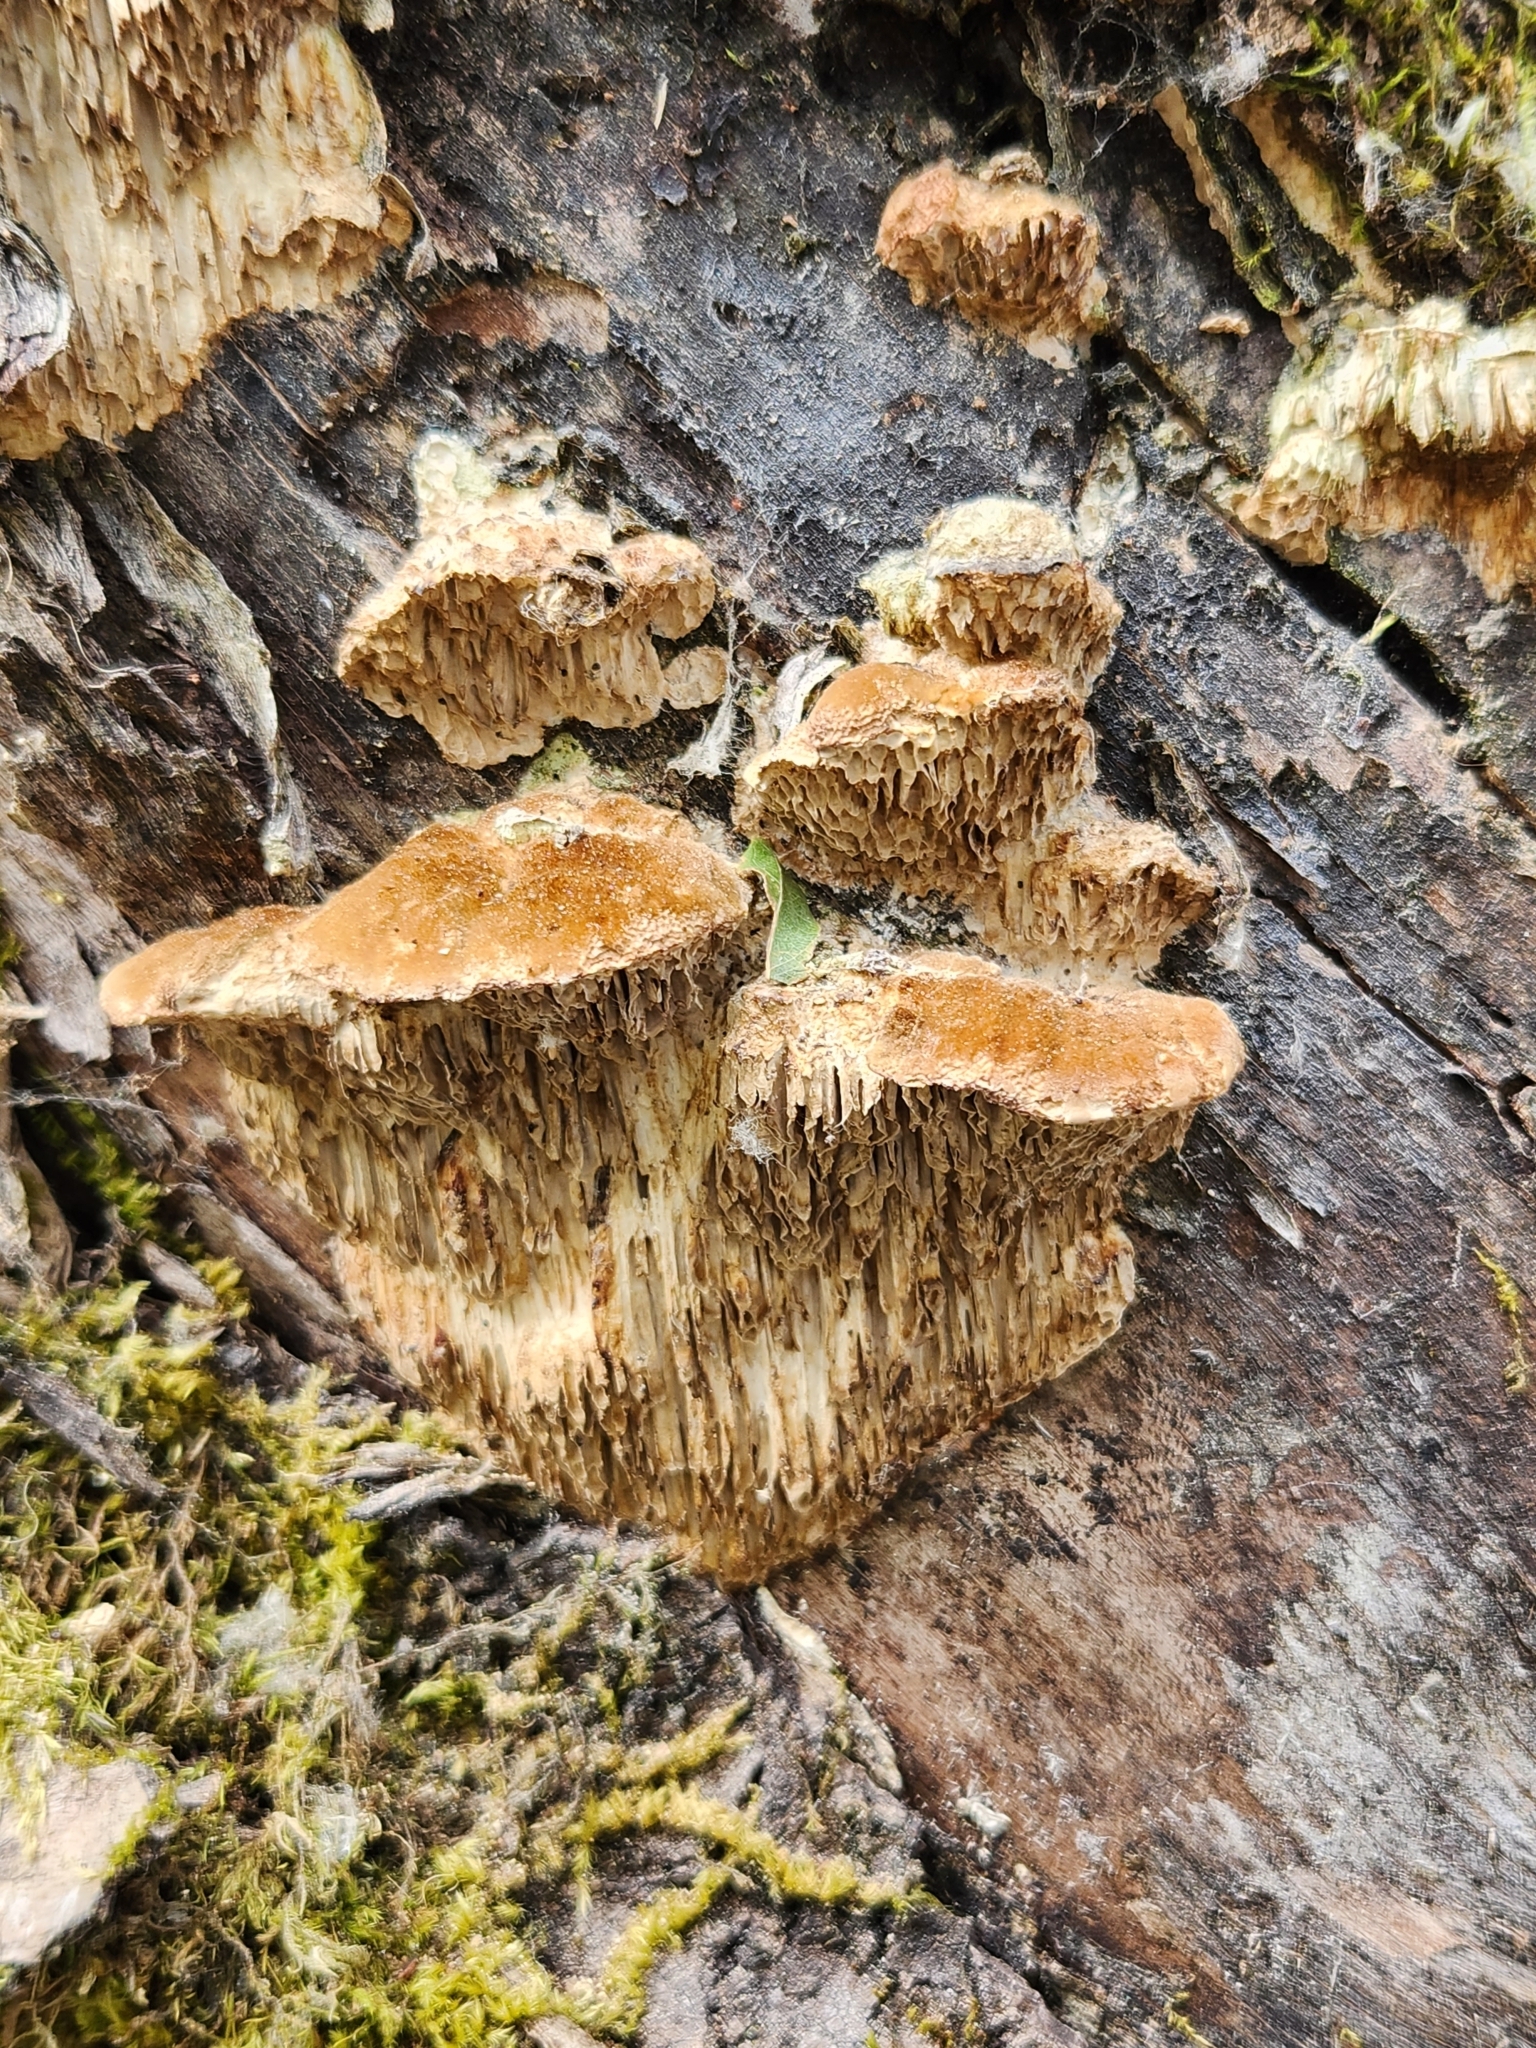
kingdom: Fungi
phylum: Basidiomycota
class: Agaricomycetes
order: Polyporales
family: Polyporaceae
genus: Coriolopsis
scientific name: Coriolopsis gallica
